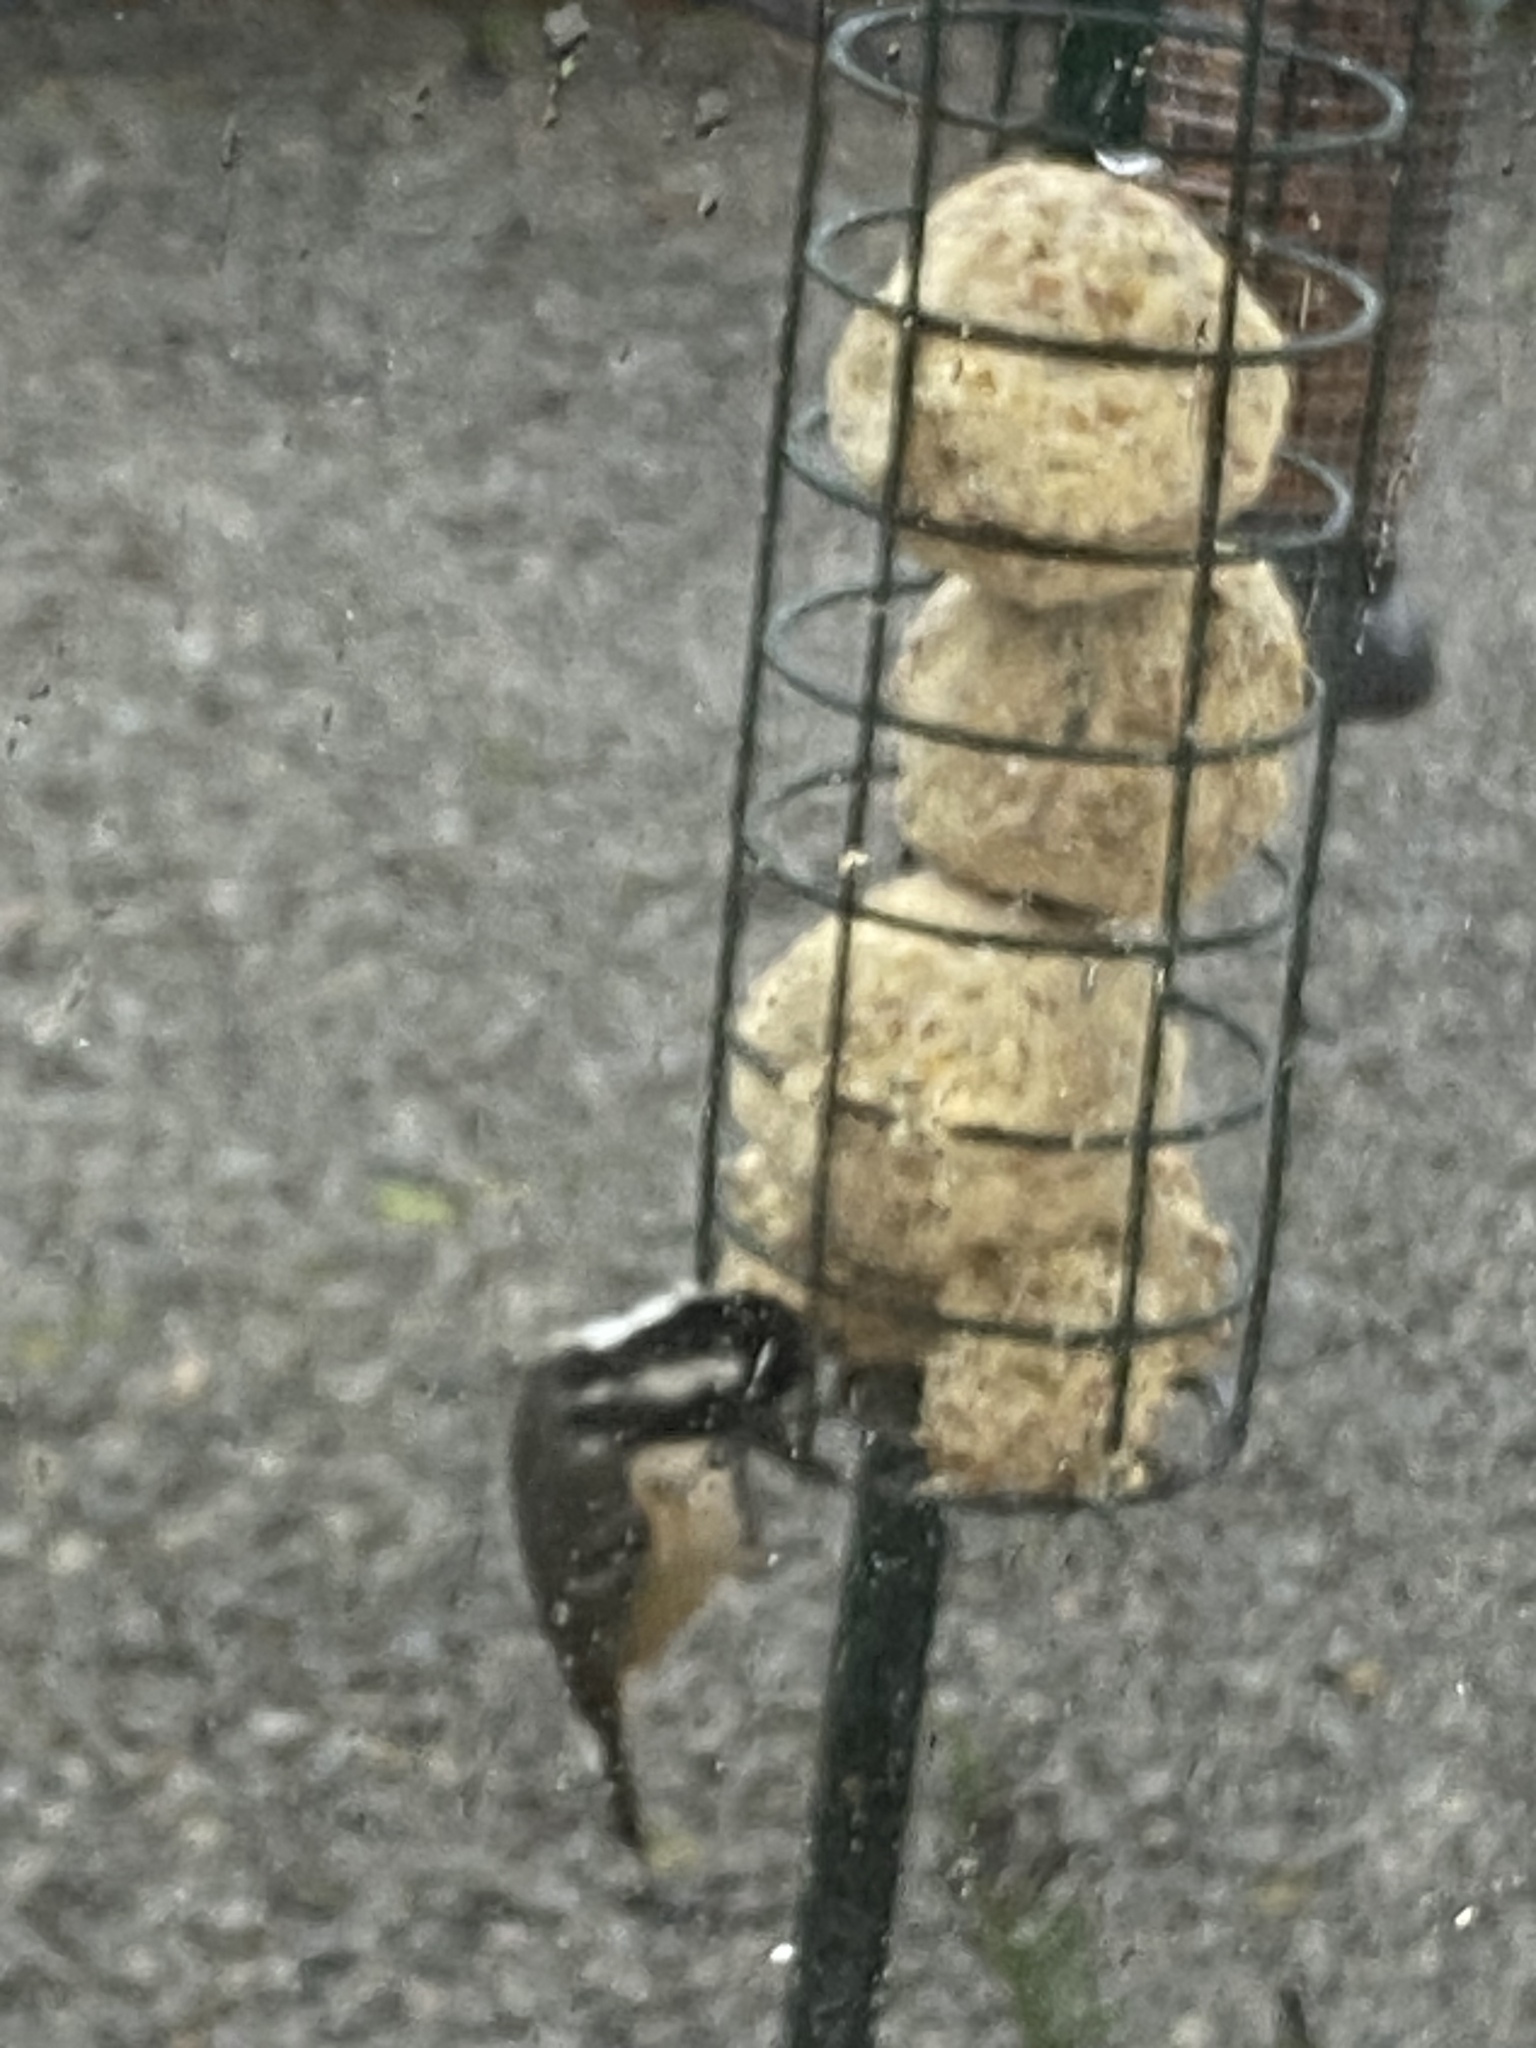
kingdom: Animalia
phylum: Chordata
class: Aves
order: Passeriformes
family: Paridae
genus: Periparus
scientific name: Periparus ater
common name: Coal tit
